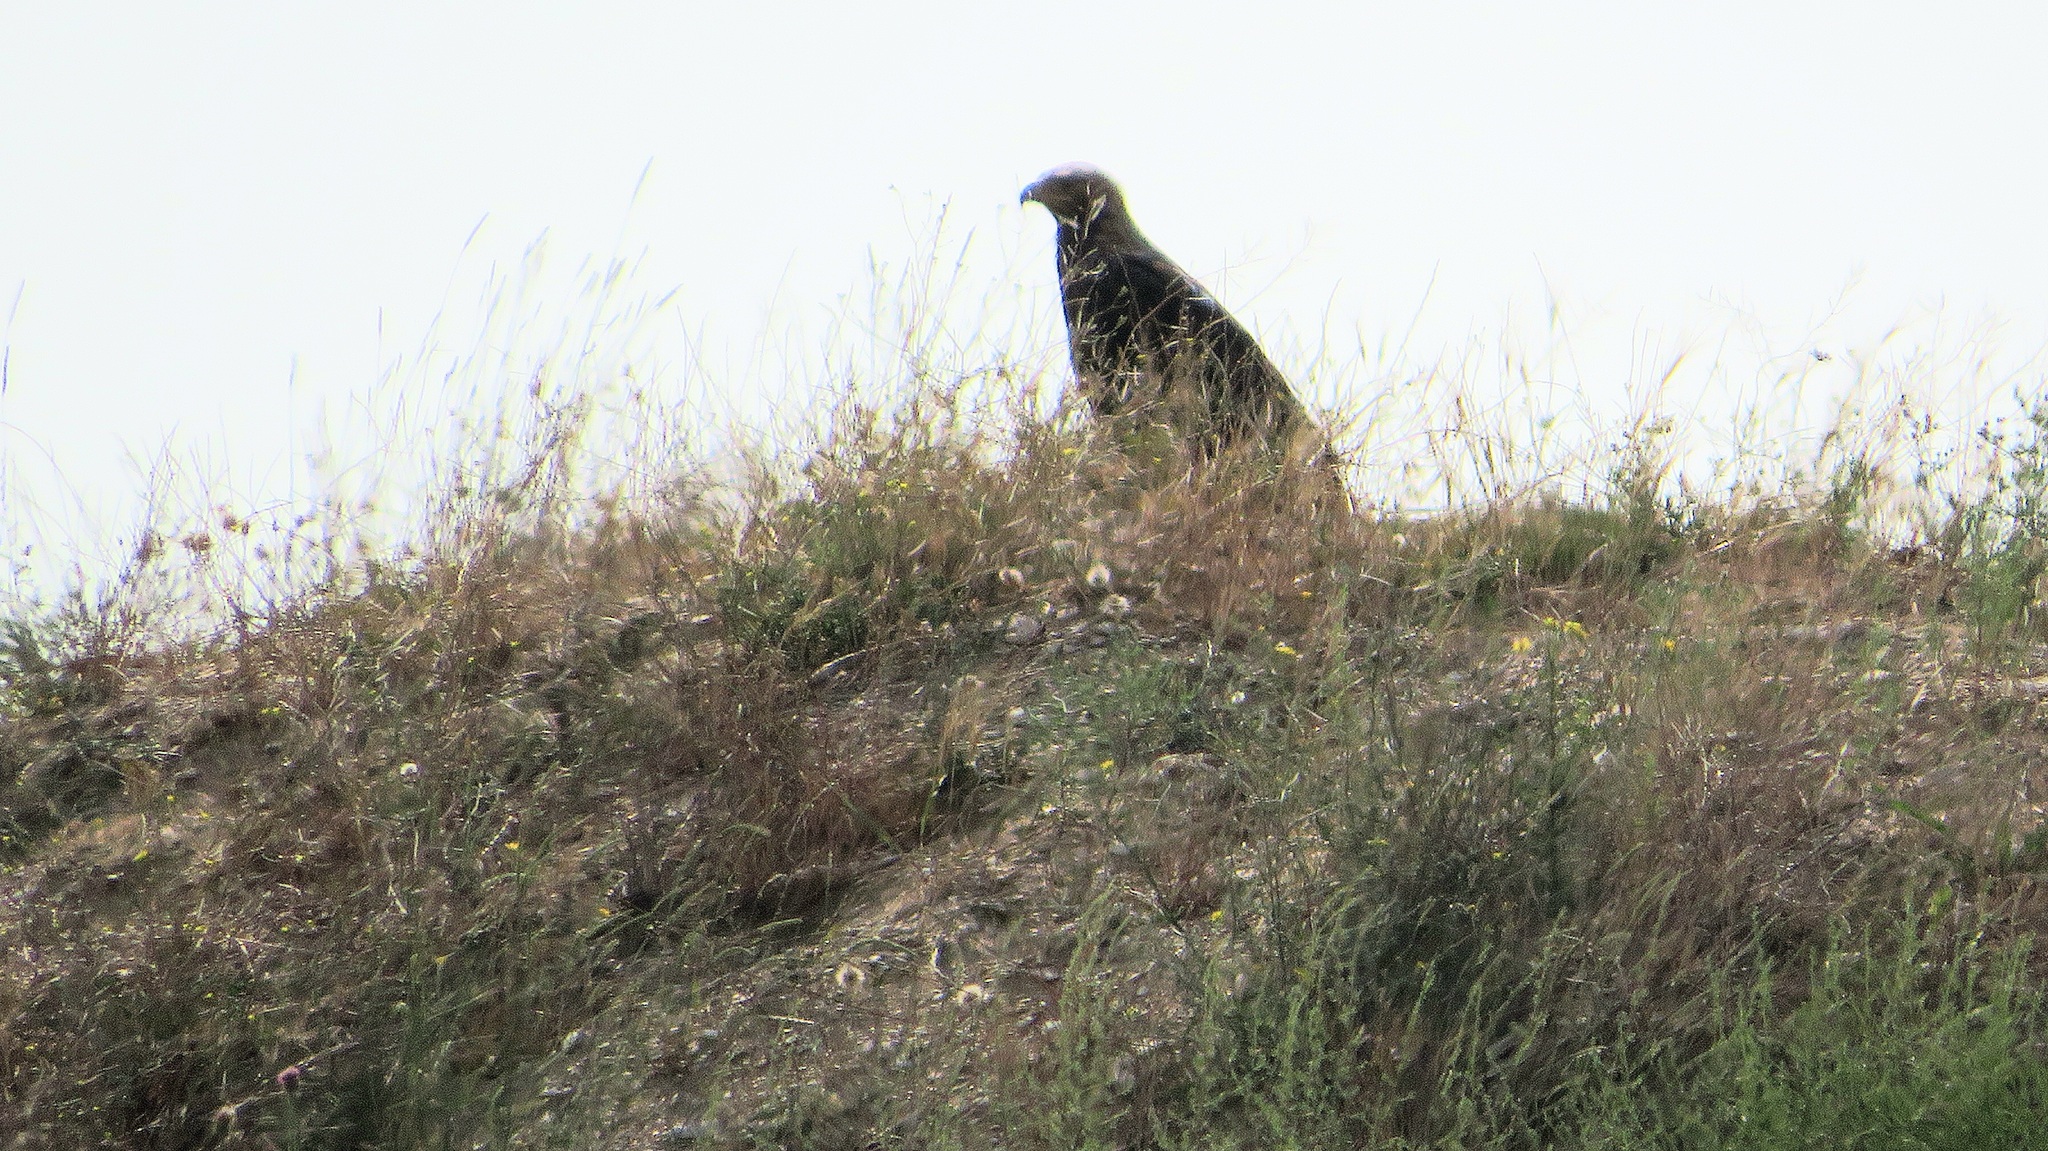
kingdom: Animalia
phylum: Chordata
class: Aves
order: Accipitriformes
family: Accipitridae
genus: Aquila
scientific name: Aquila heliaca
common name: Eastern imperial eagle
